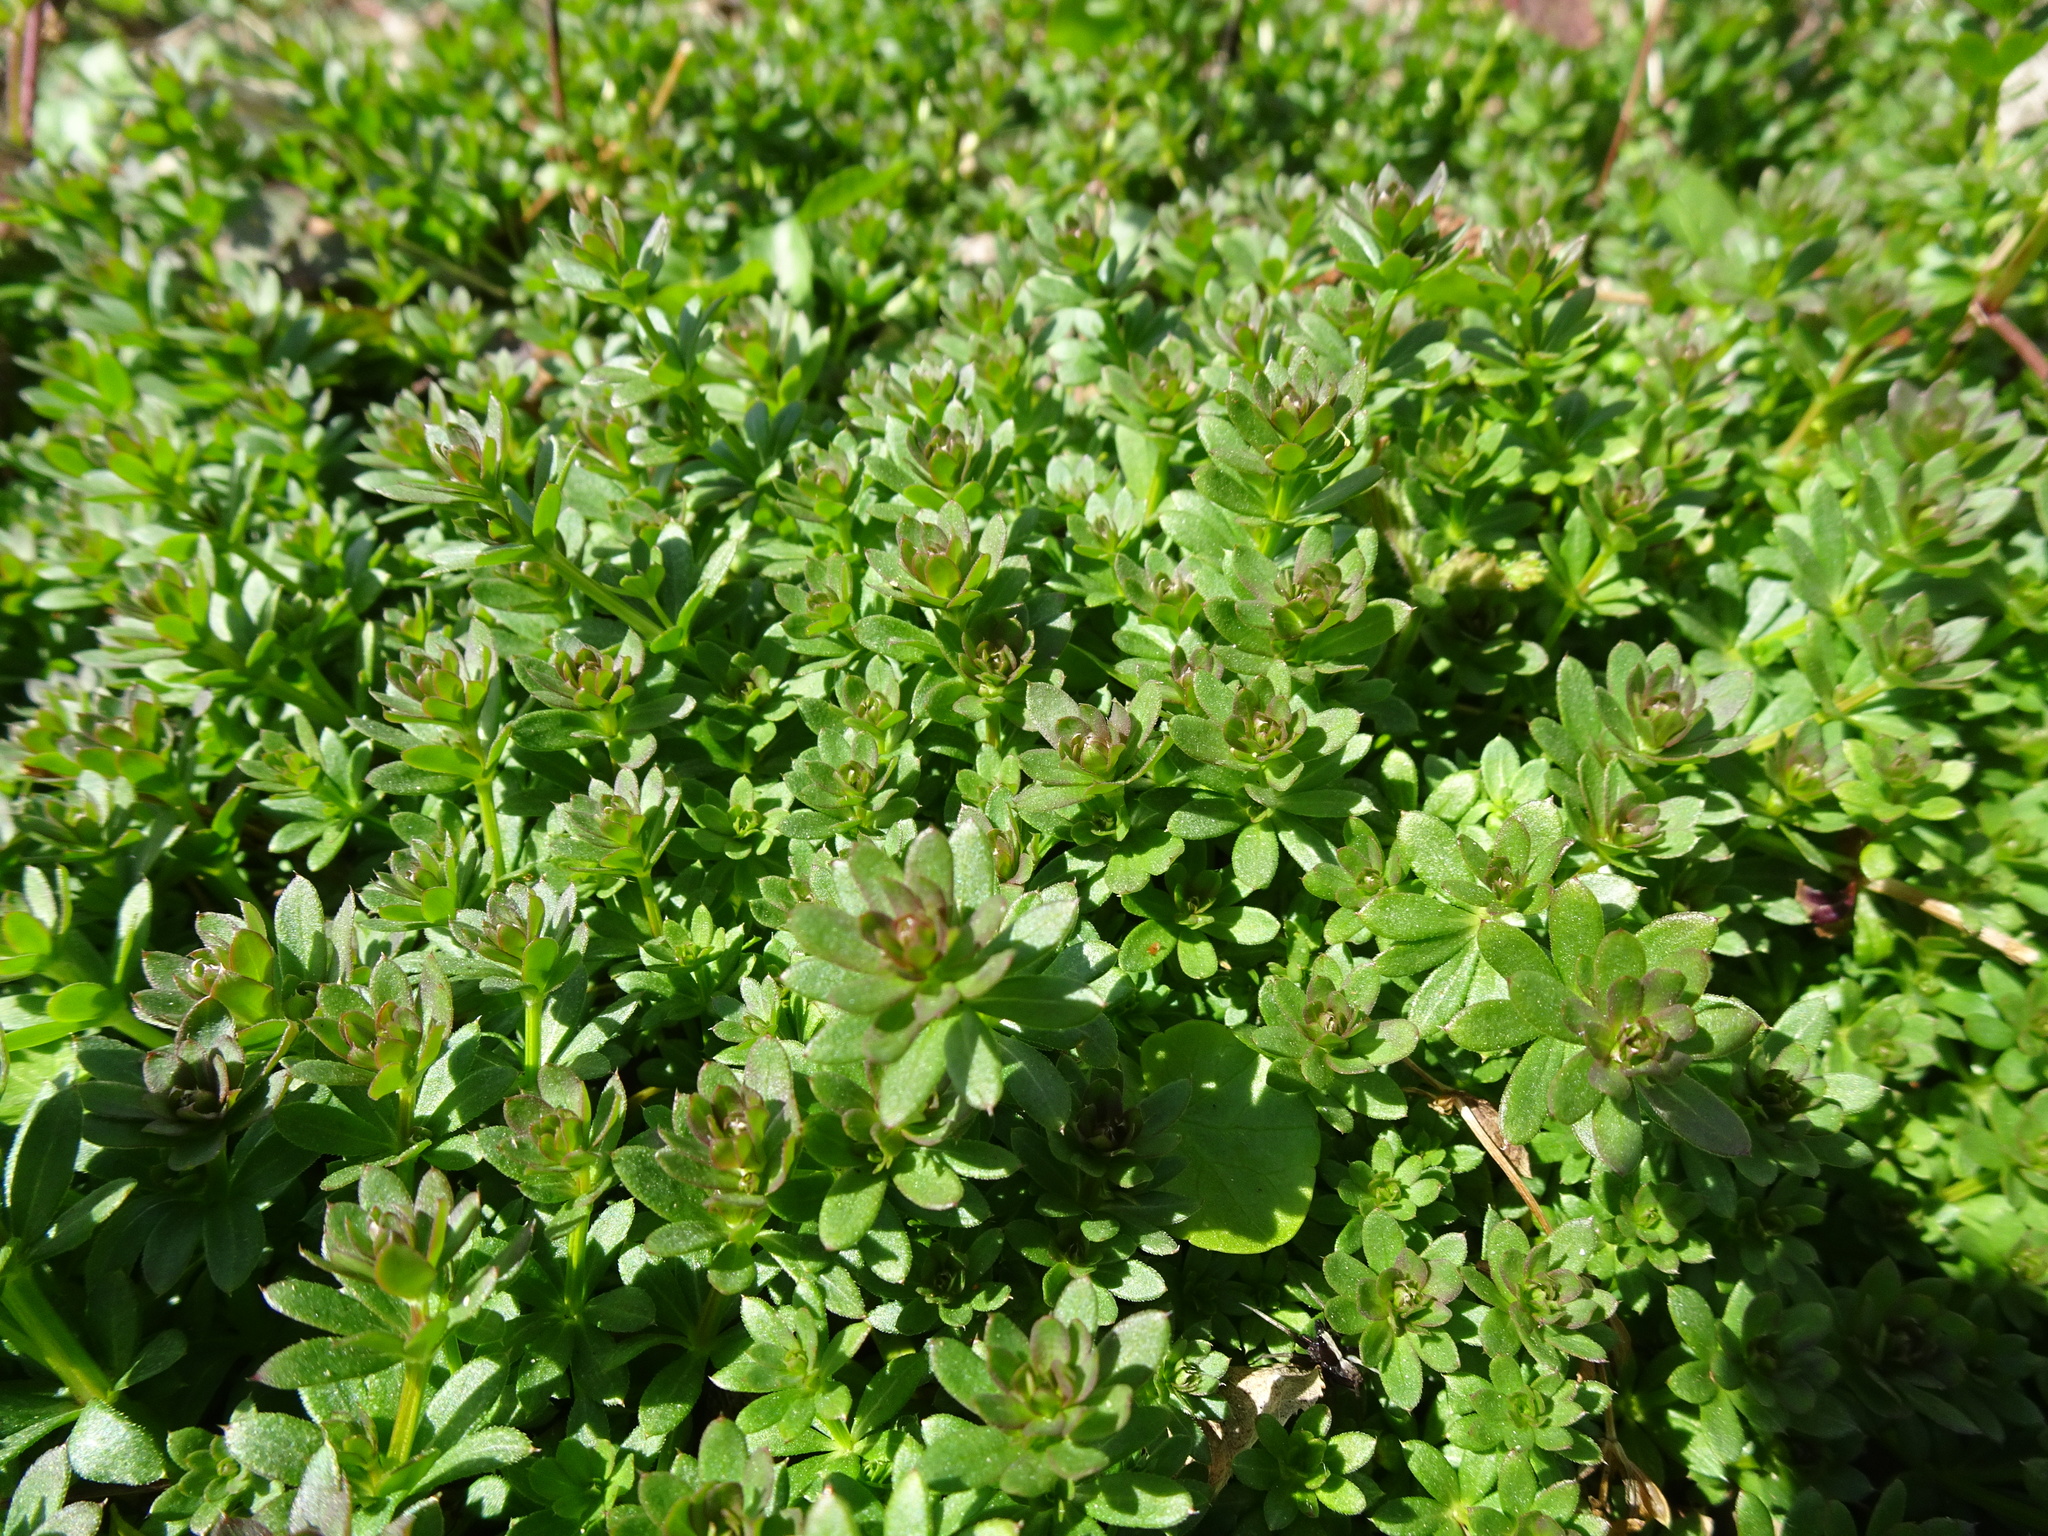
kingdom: Plantae
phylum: Tracheophyta
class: Magnoliopsida
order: Gentianales
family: Rubiaceae
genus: Galium
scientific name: Galium mollugo
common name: Hedge bedstraw
